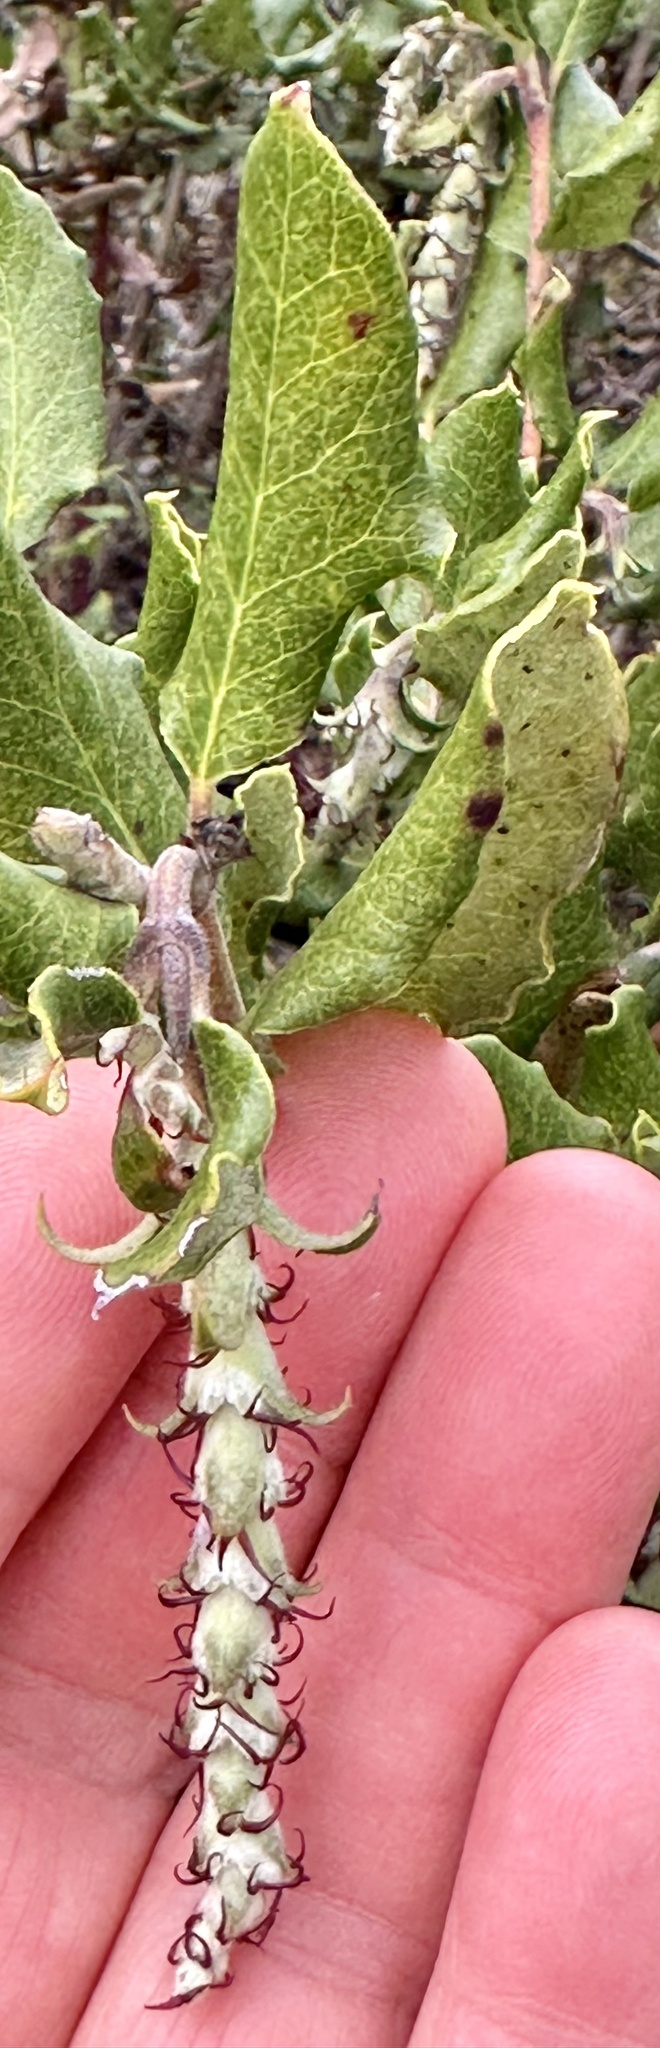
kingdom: Plantae
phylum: Tracheophyta
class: Magnoliopsida
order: Garryales
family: Garryaceae
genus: Garrya
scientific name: Garrya elliptica
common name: Silk-tassel
